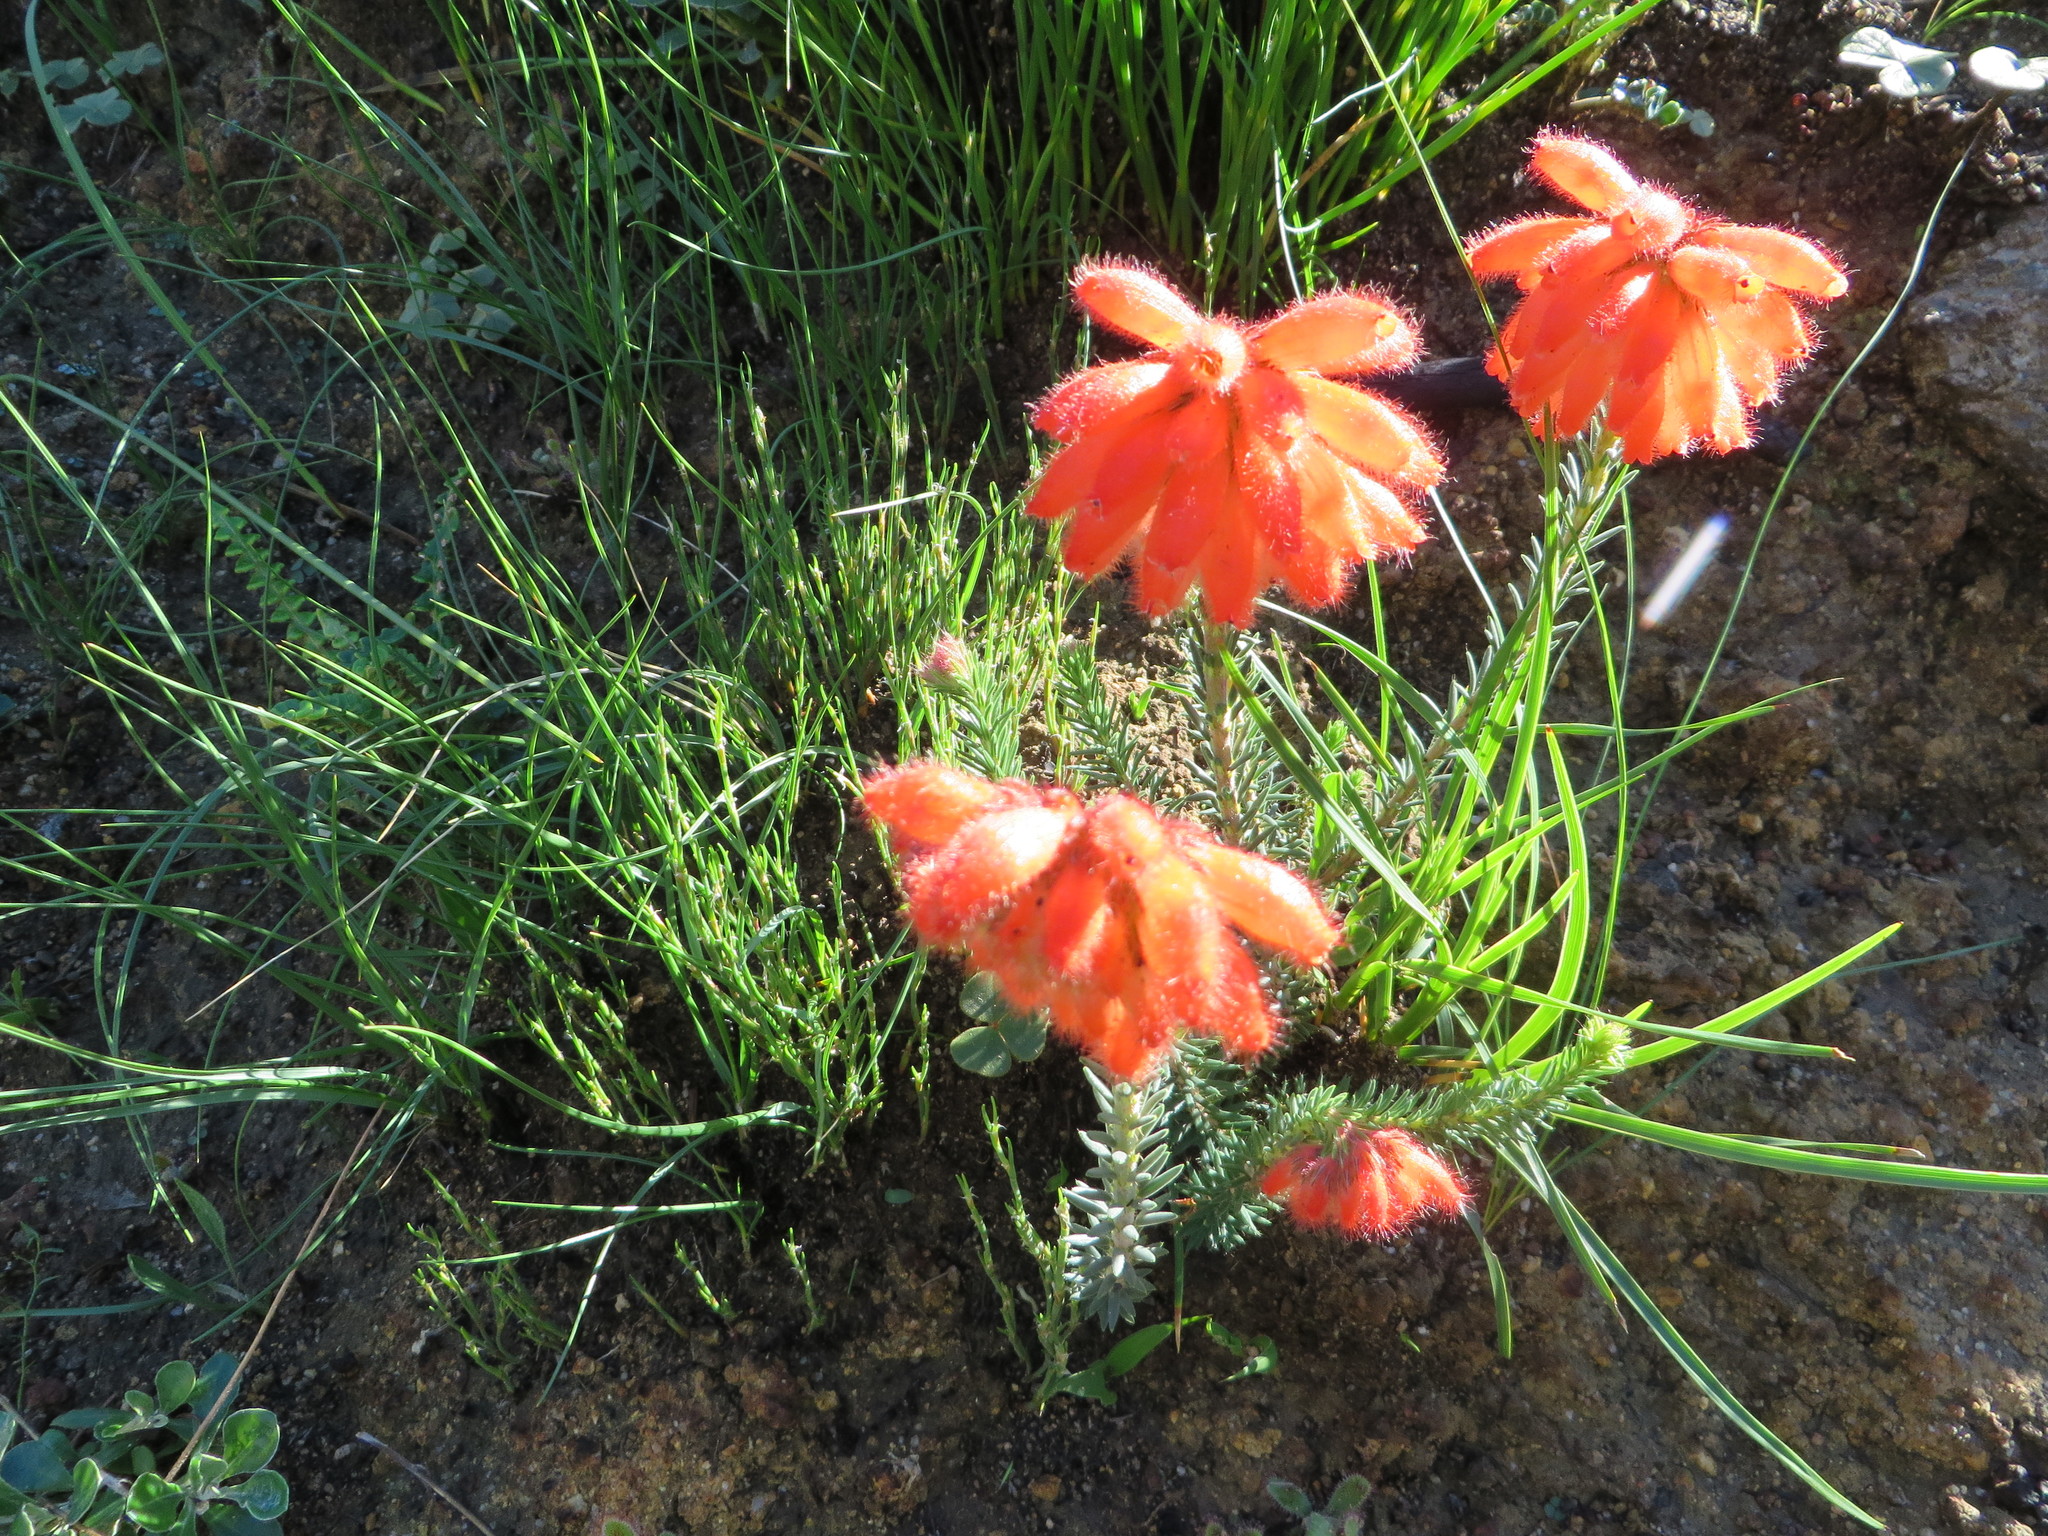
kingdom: Plantae
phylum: Tracheophyta
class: Magnoliopsida
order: Ericales
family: Ericaceae
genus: Erica
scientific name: Erica cerinthoides
